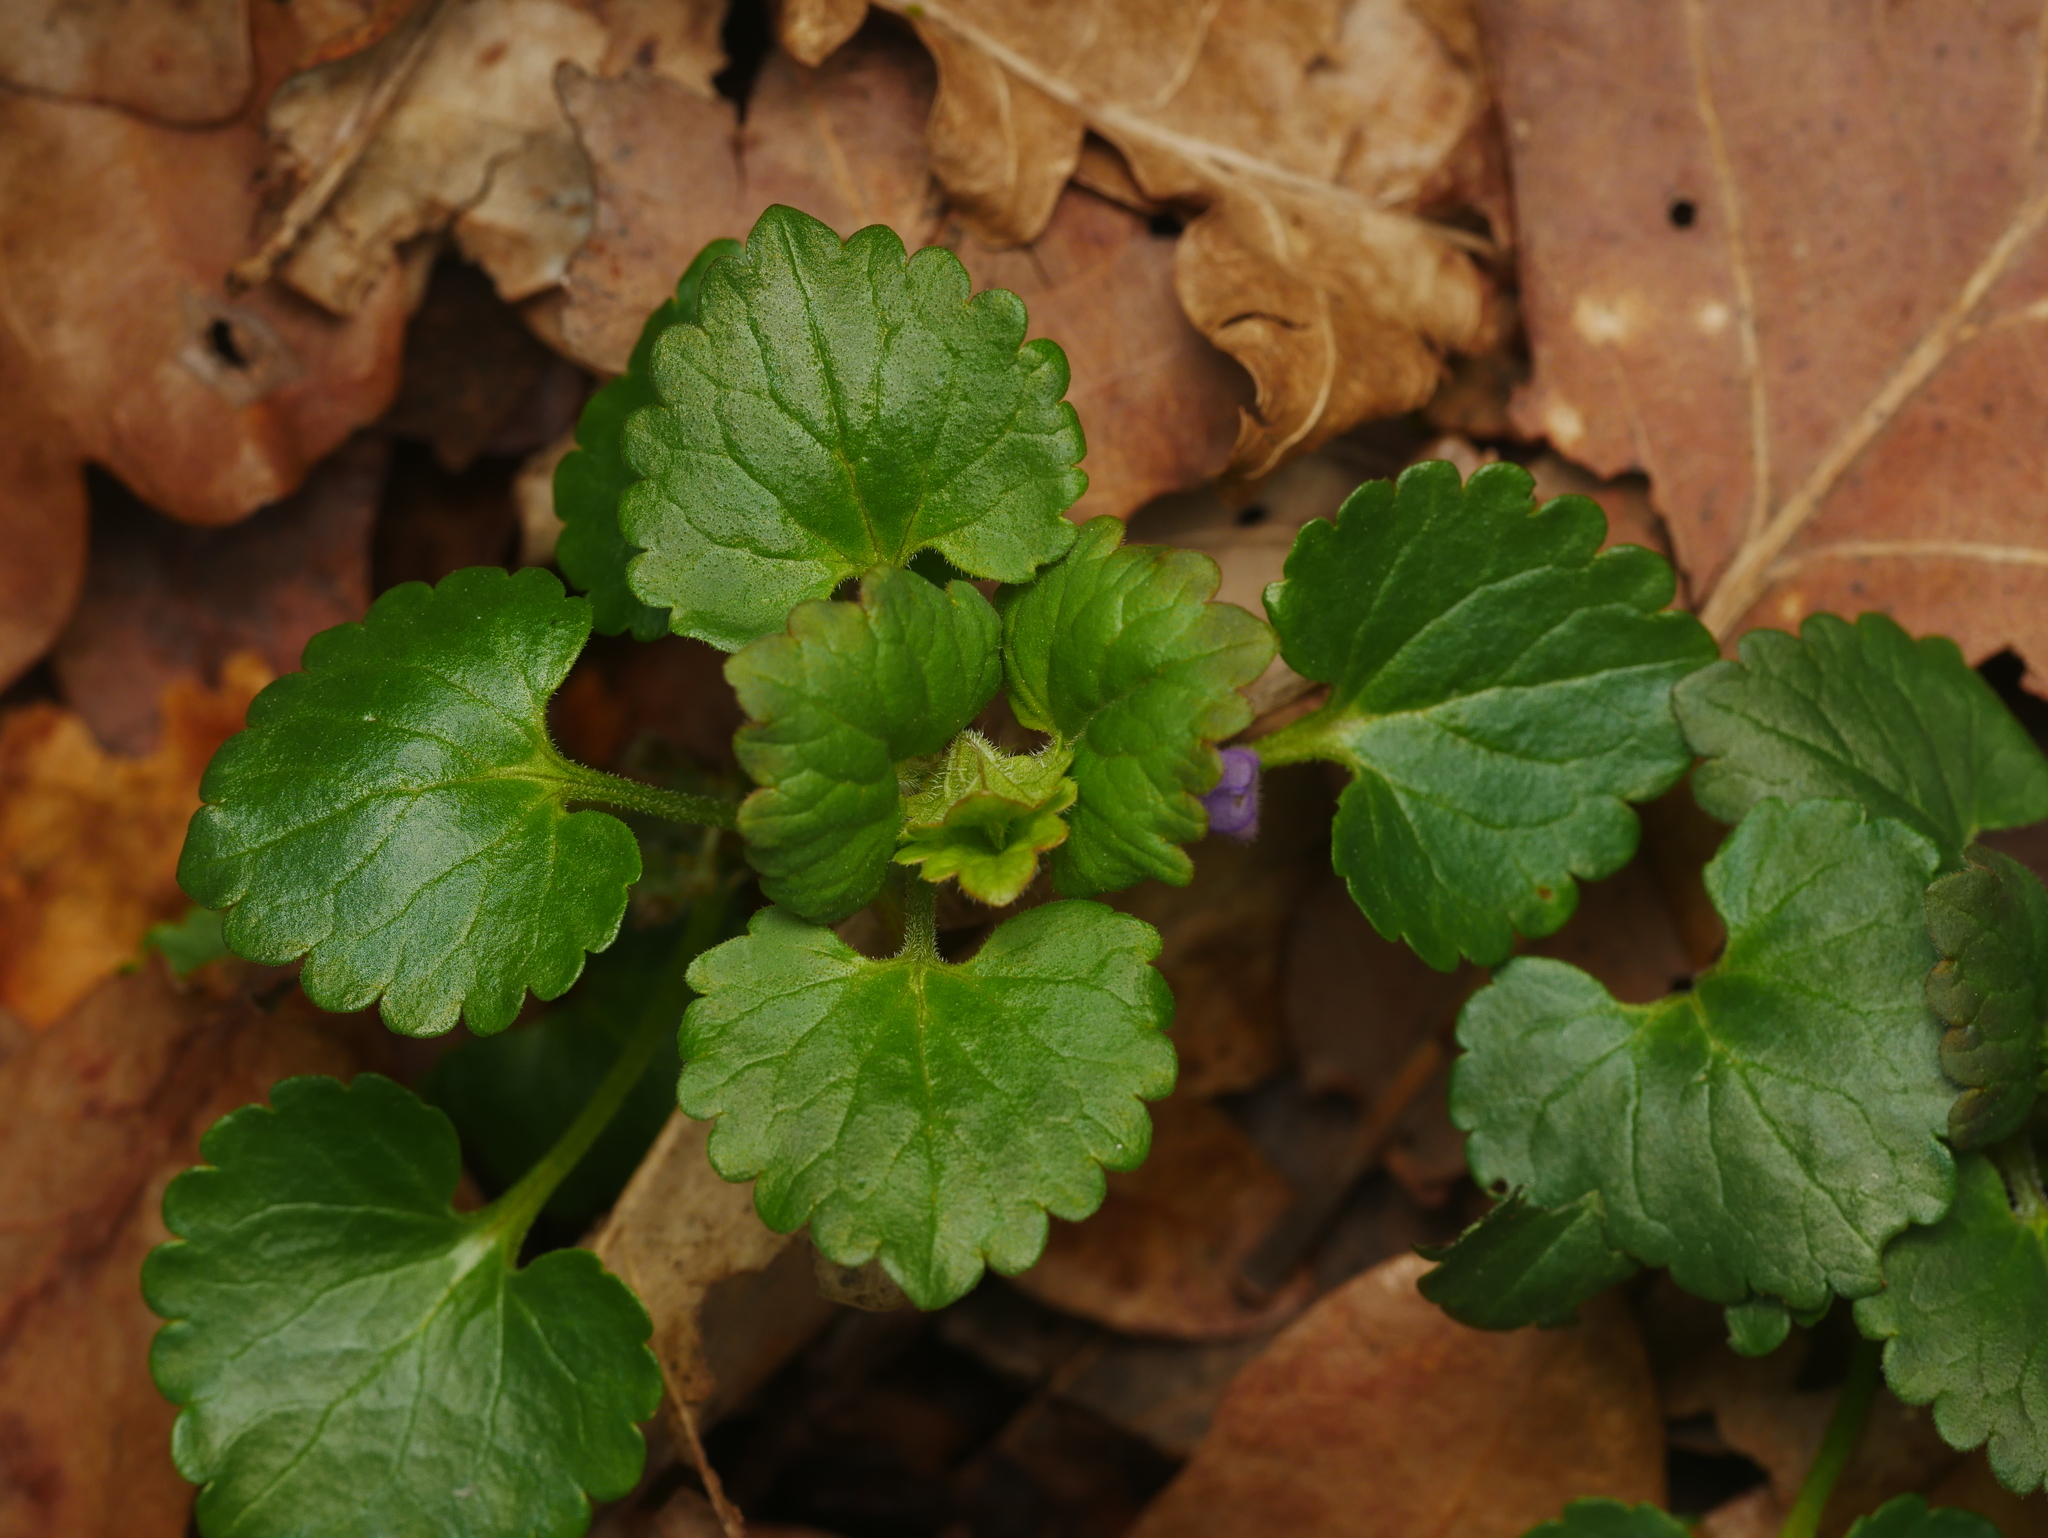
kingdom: Plantae
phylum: Tracheophyta
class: Magnoliopsida
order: Lamiales
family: Lamiaceae
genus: Glechoma
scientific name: Glechoma hederacea
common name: Ground ivy
